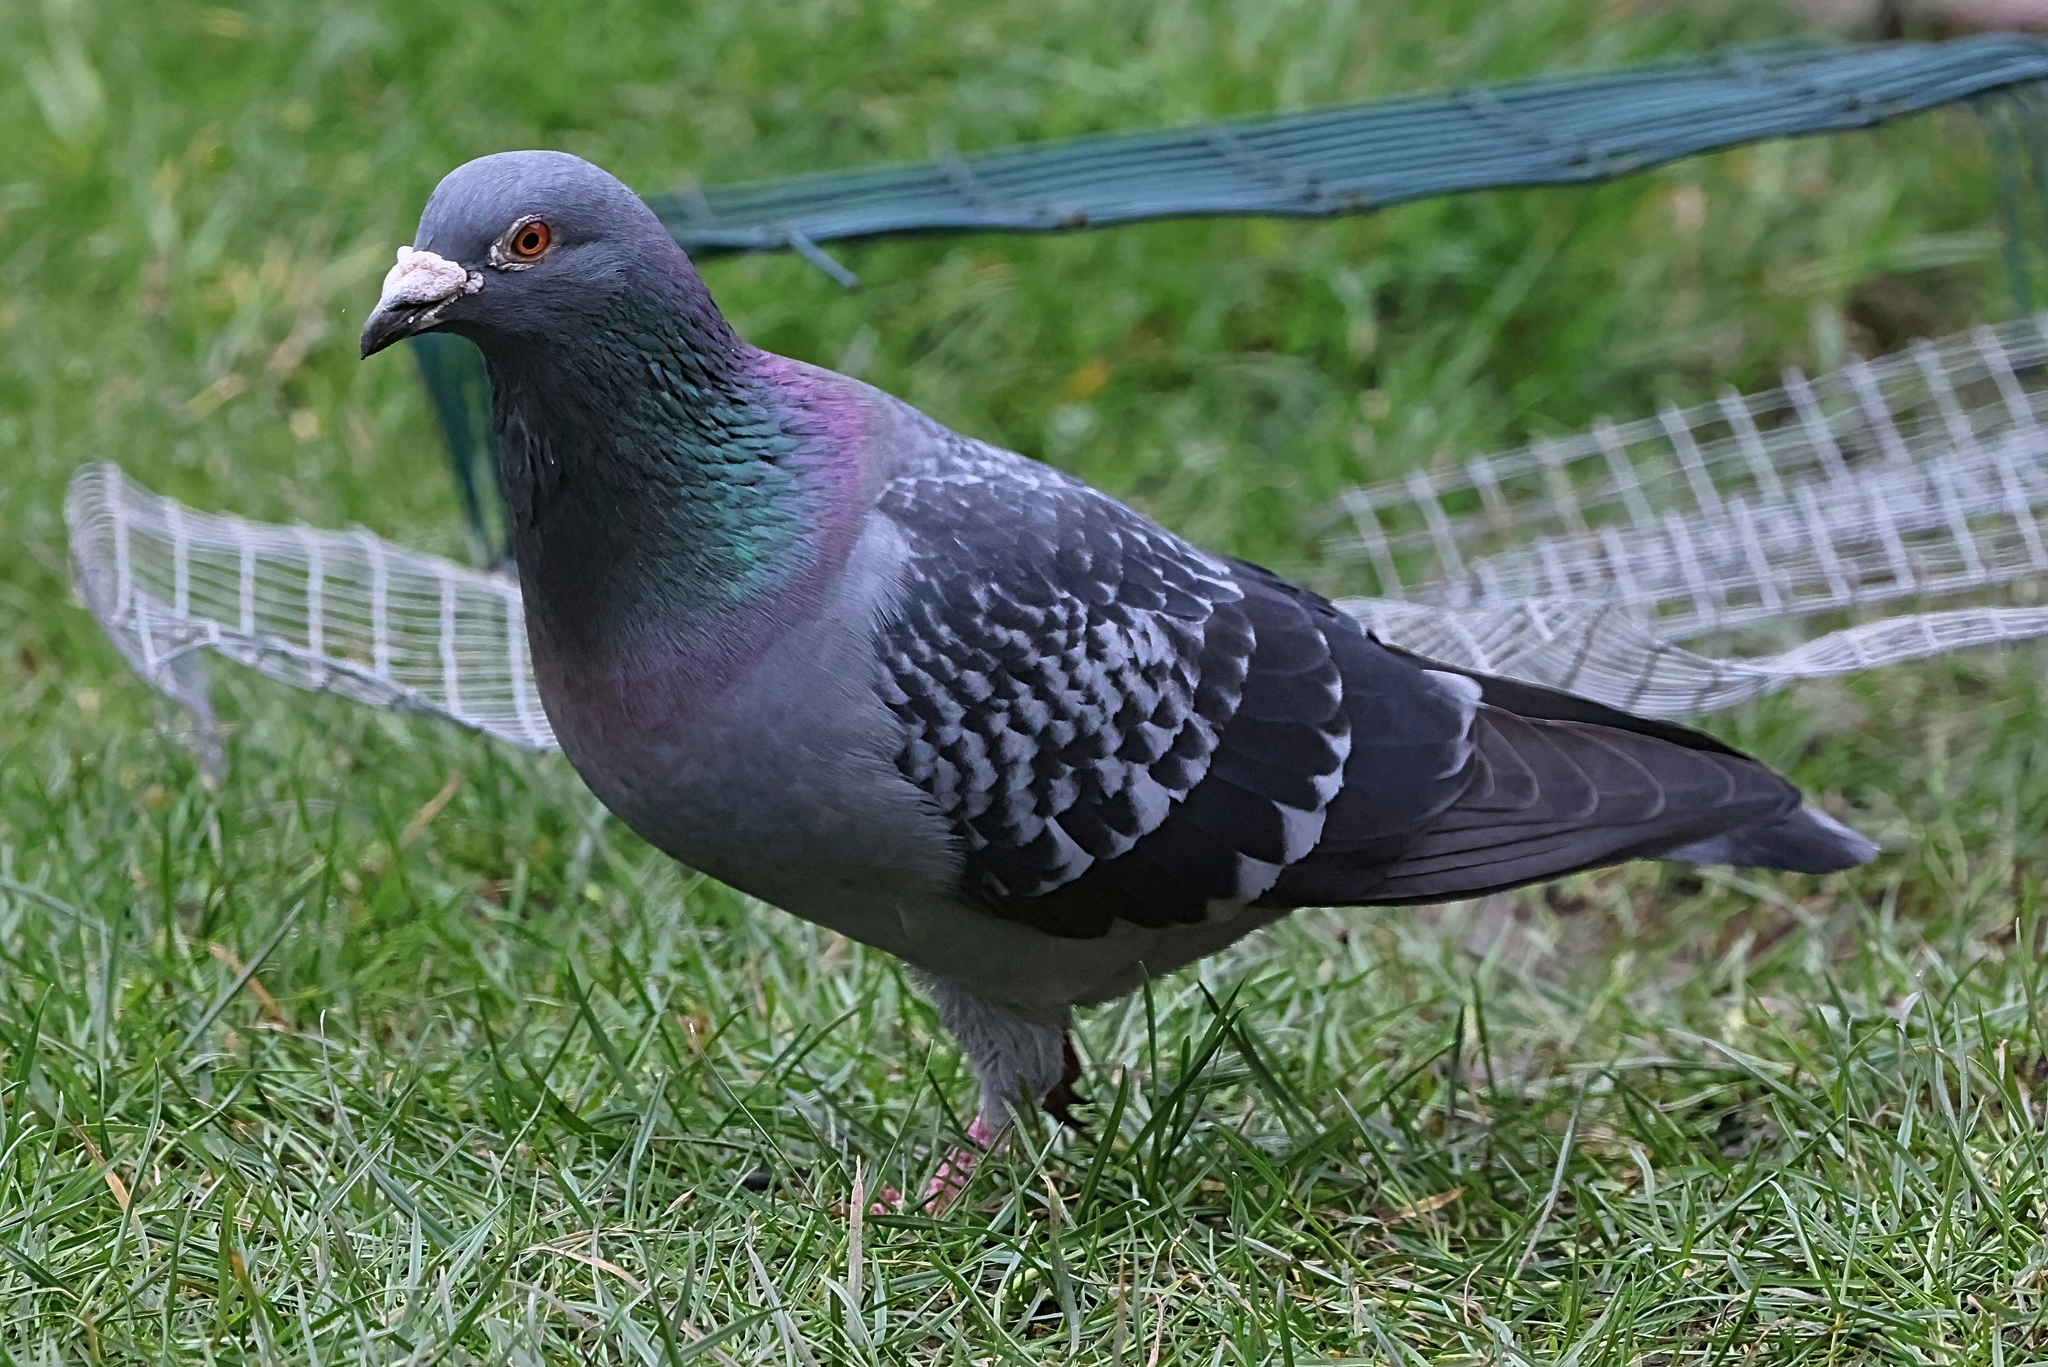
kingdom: Animalia
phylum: Chordata
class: Aves
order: Columbiformes
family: Columbidae
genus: Columba
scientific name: Columba livia
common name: Rock pigeon
